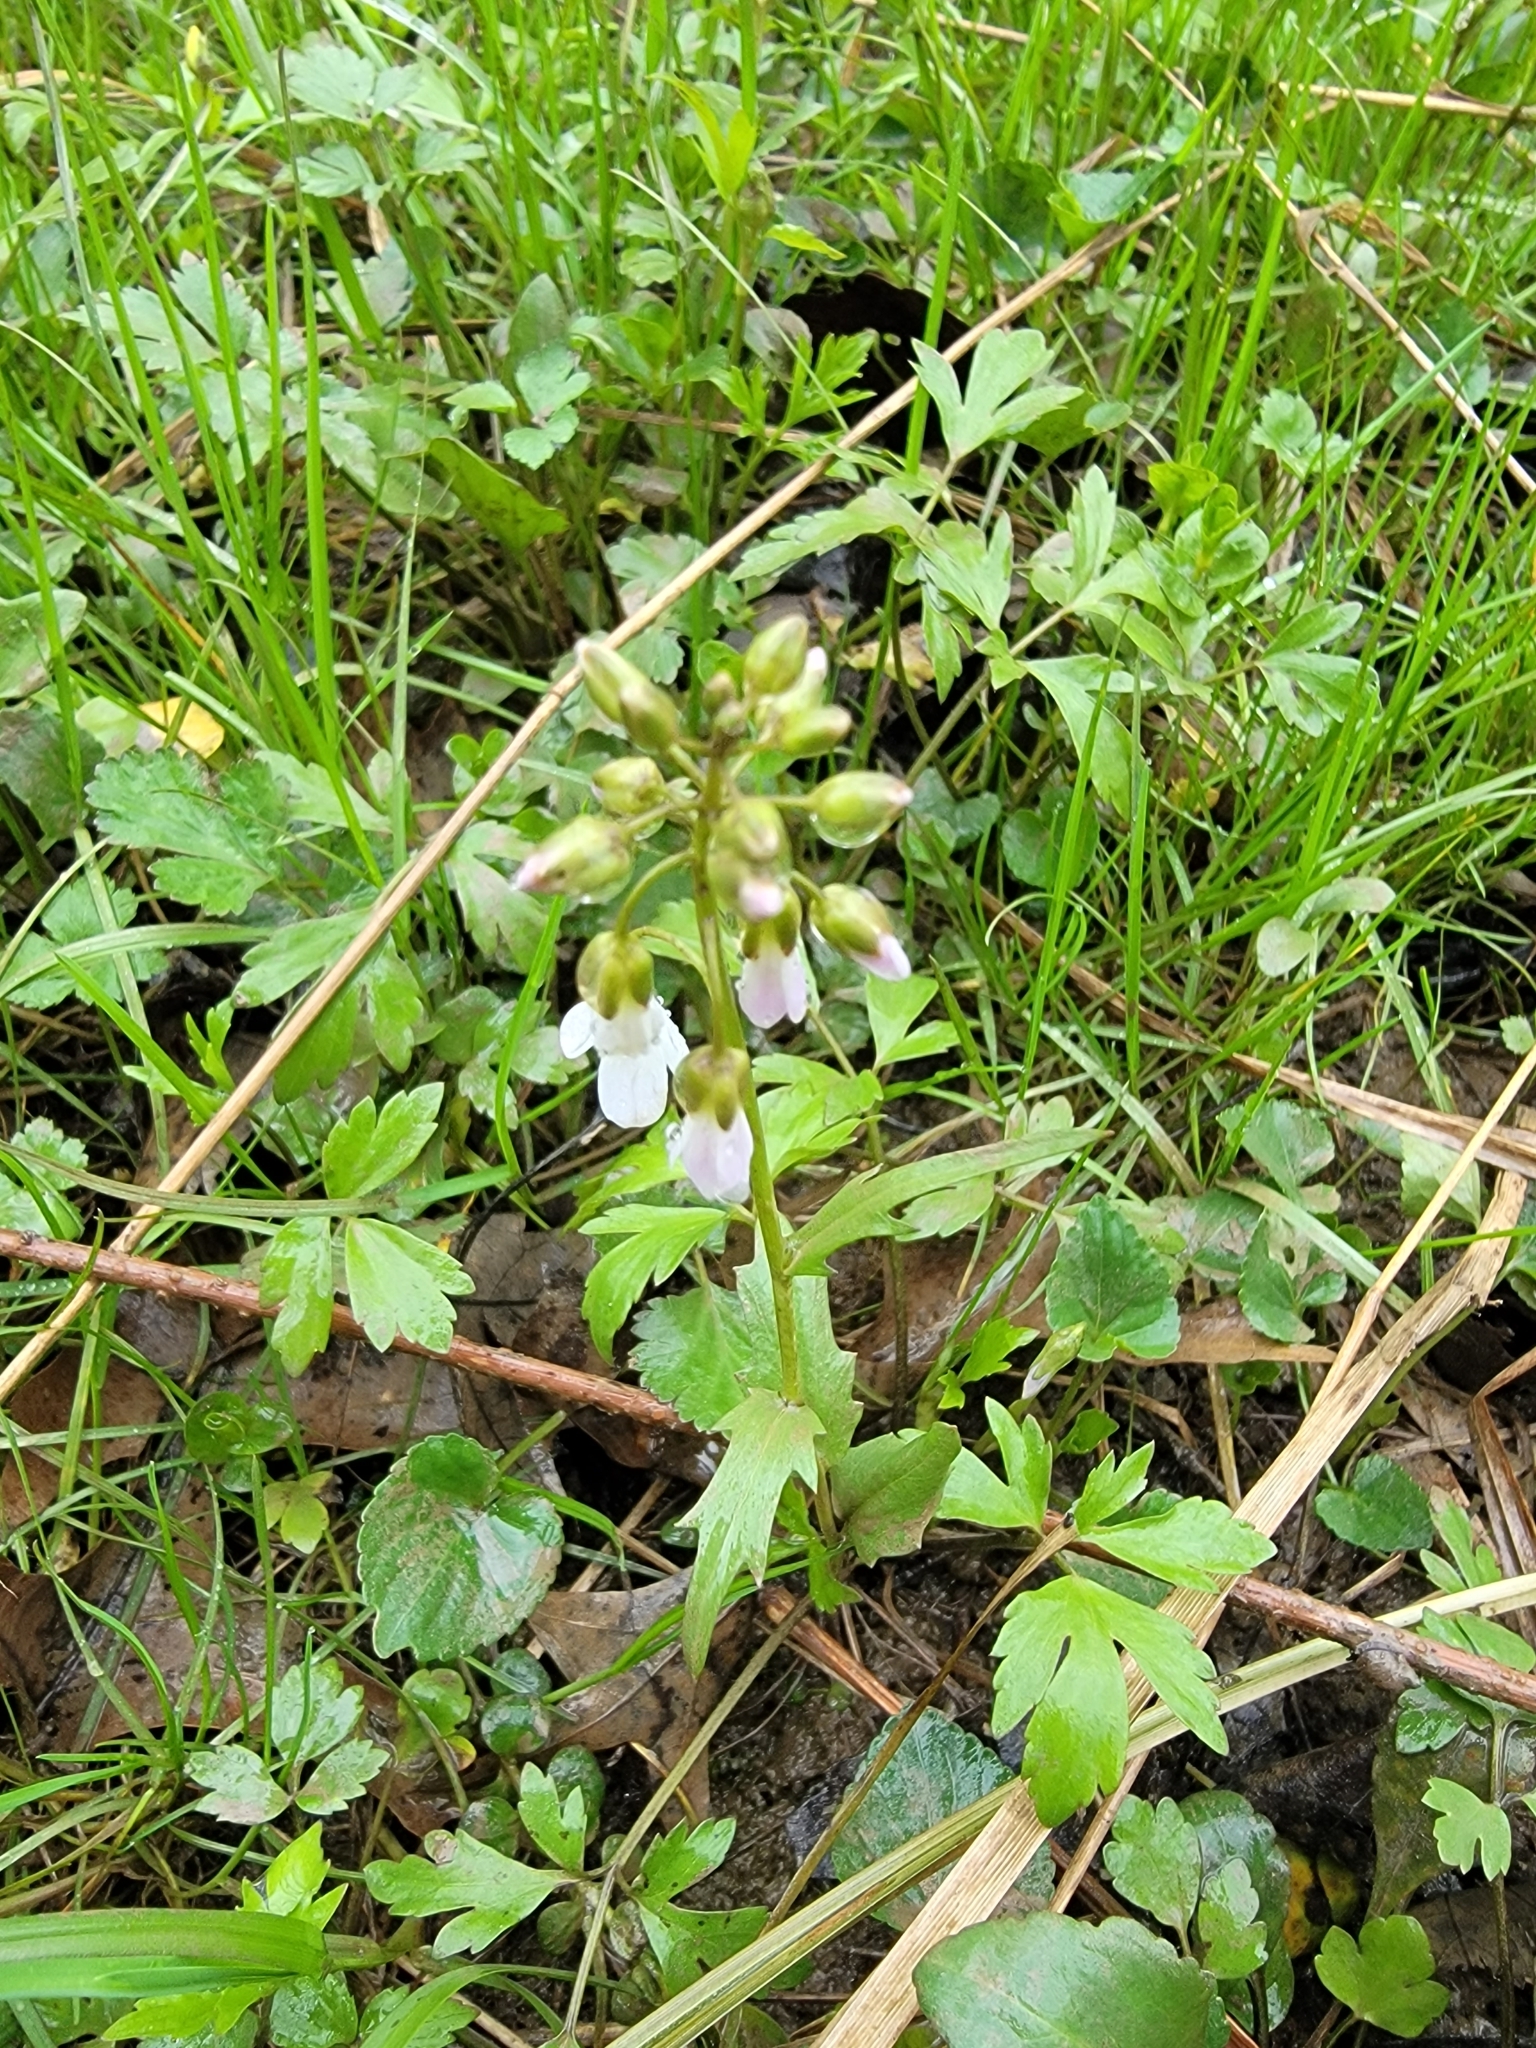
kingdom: Plantae
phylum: Tracheophyta
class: Magnoliopsida
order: Brassicales
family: Brassicaceae
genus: Cardamine
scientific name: Cardamine douglassii
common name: Purple cress
